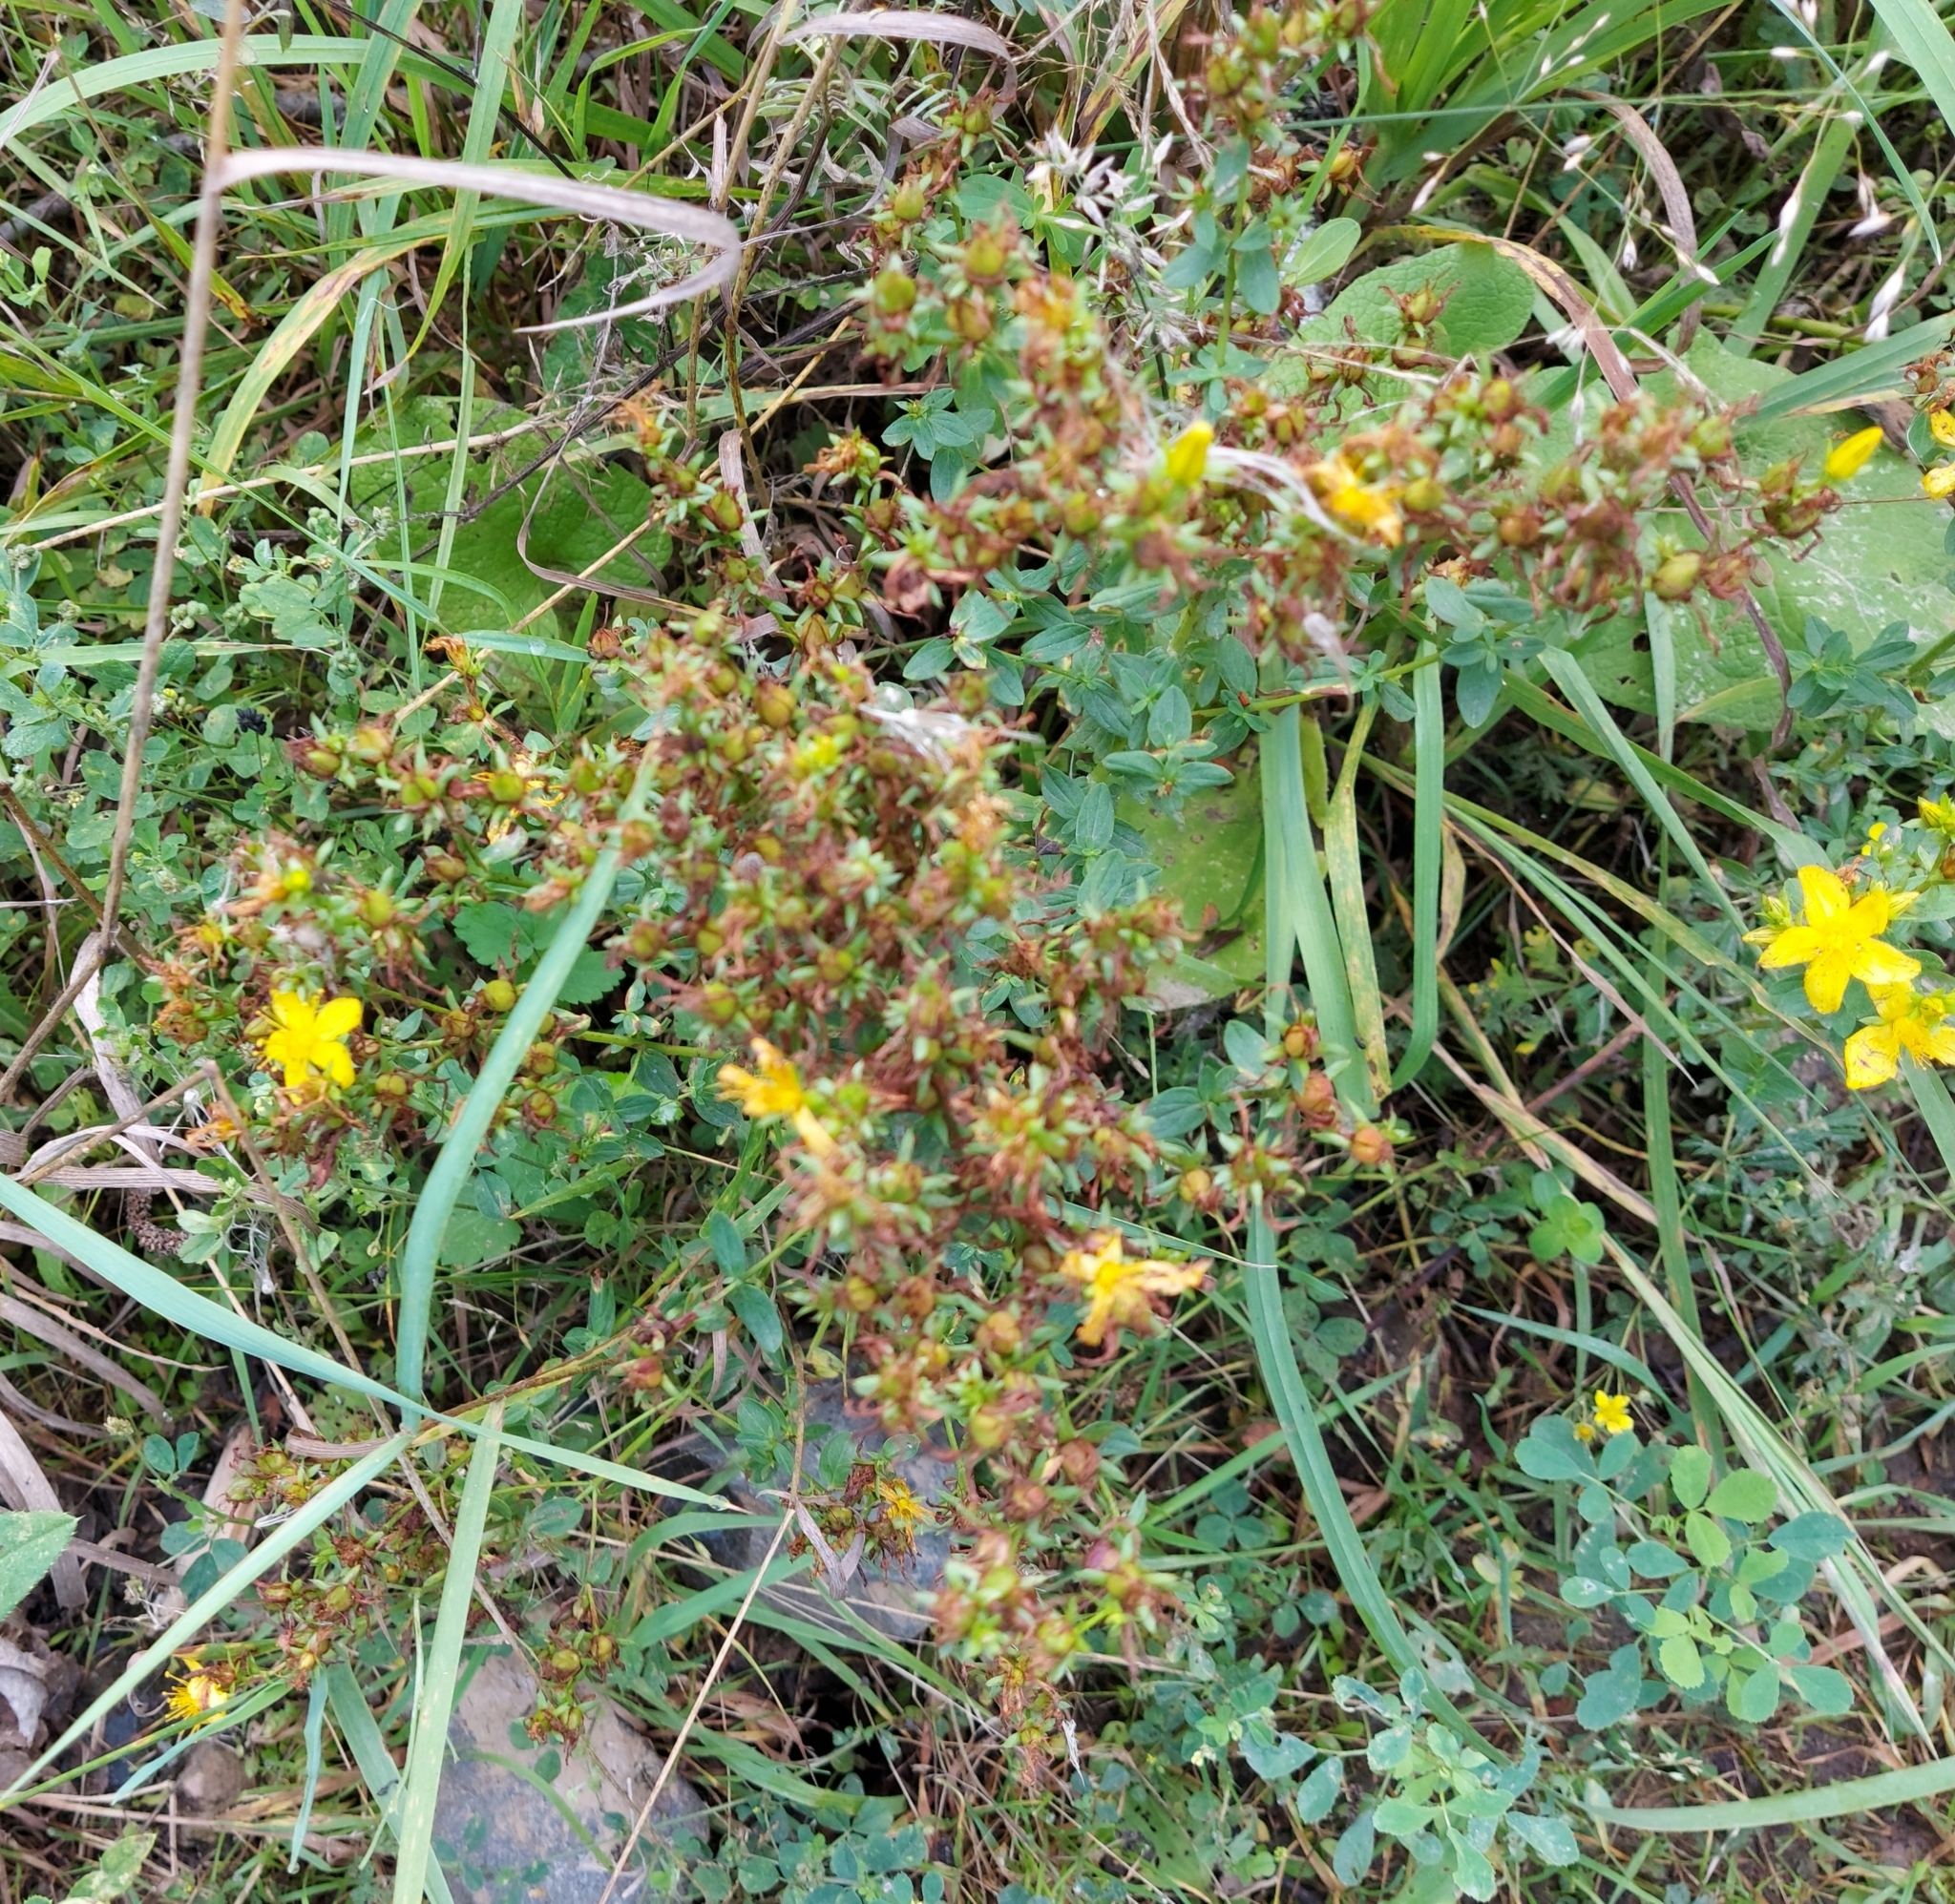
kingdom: Plantae
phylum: Tracheophyta
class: Magnoliopsida
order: Malpighiales
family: Hypericaceae
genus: Hypericum
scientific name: Hypericum perforatum
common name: Common st. johnswort
